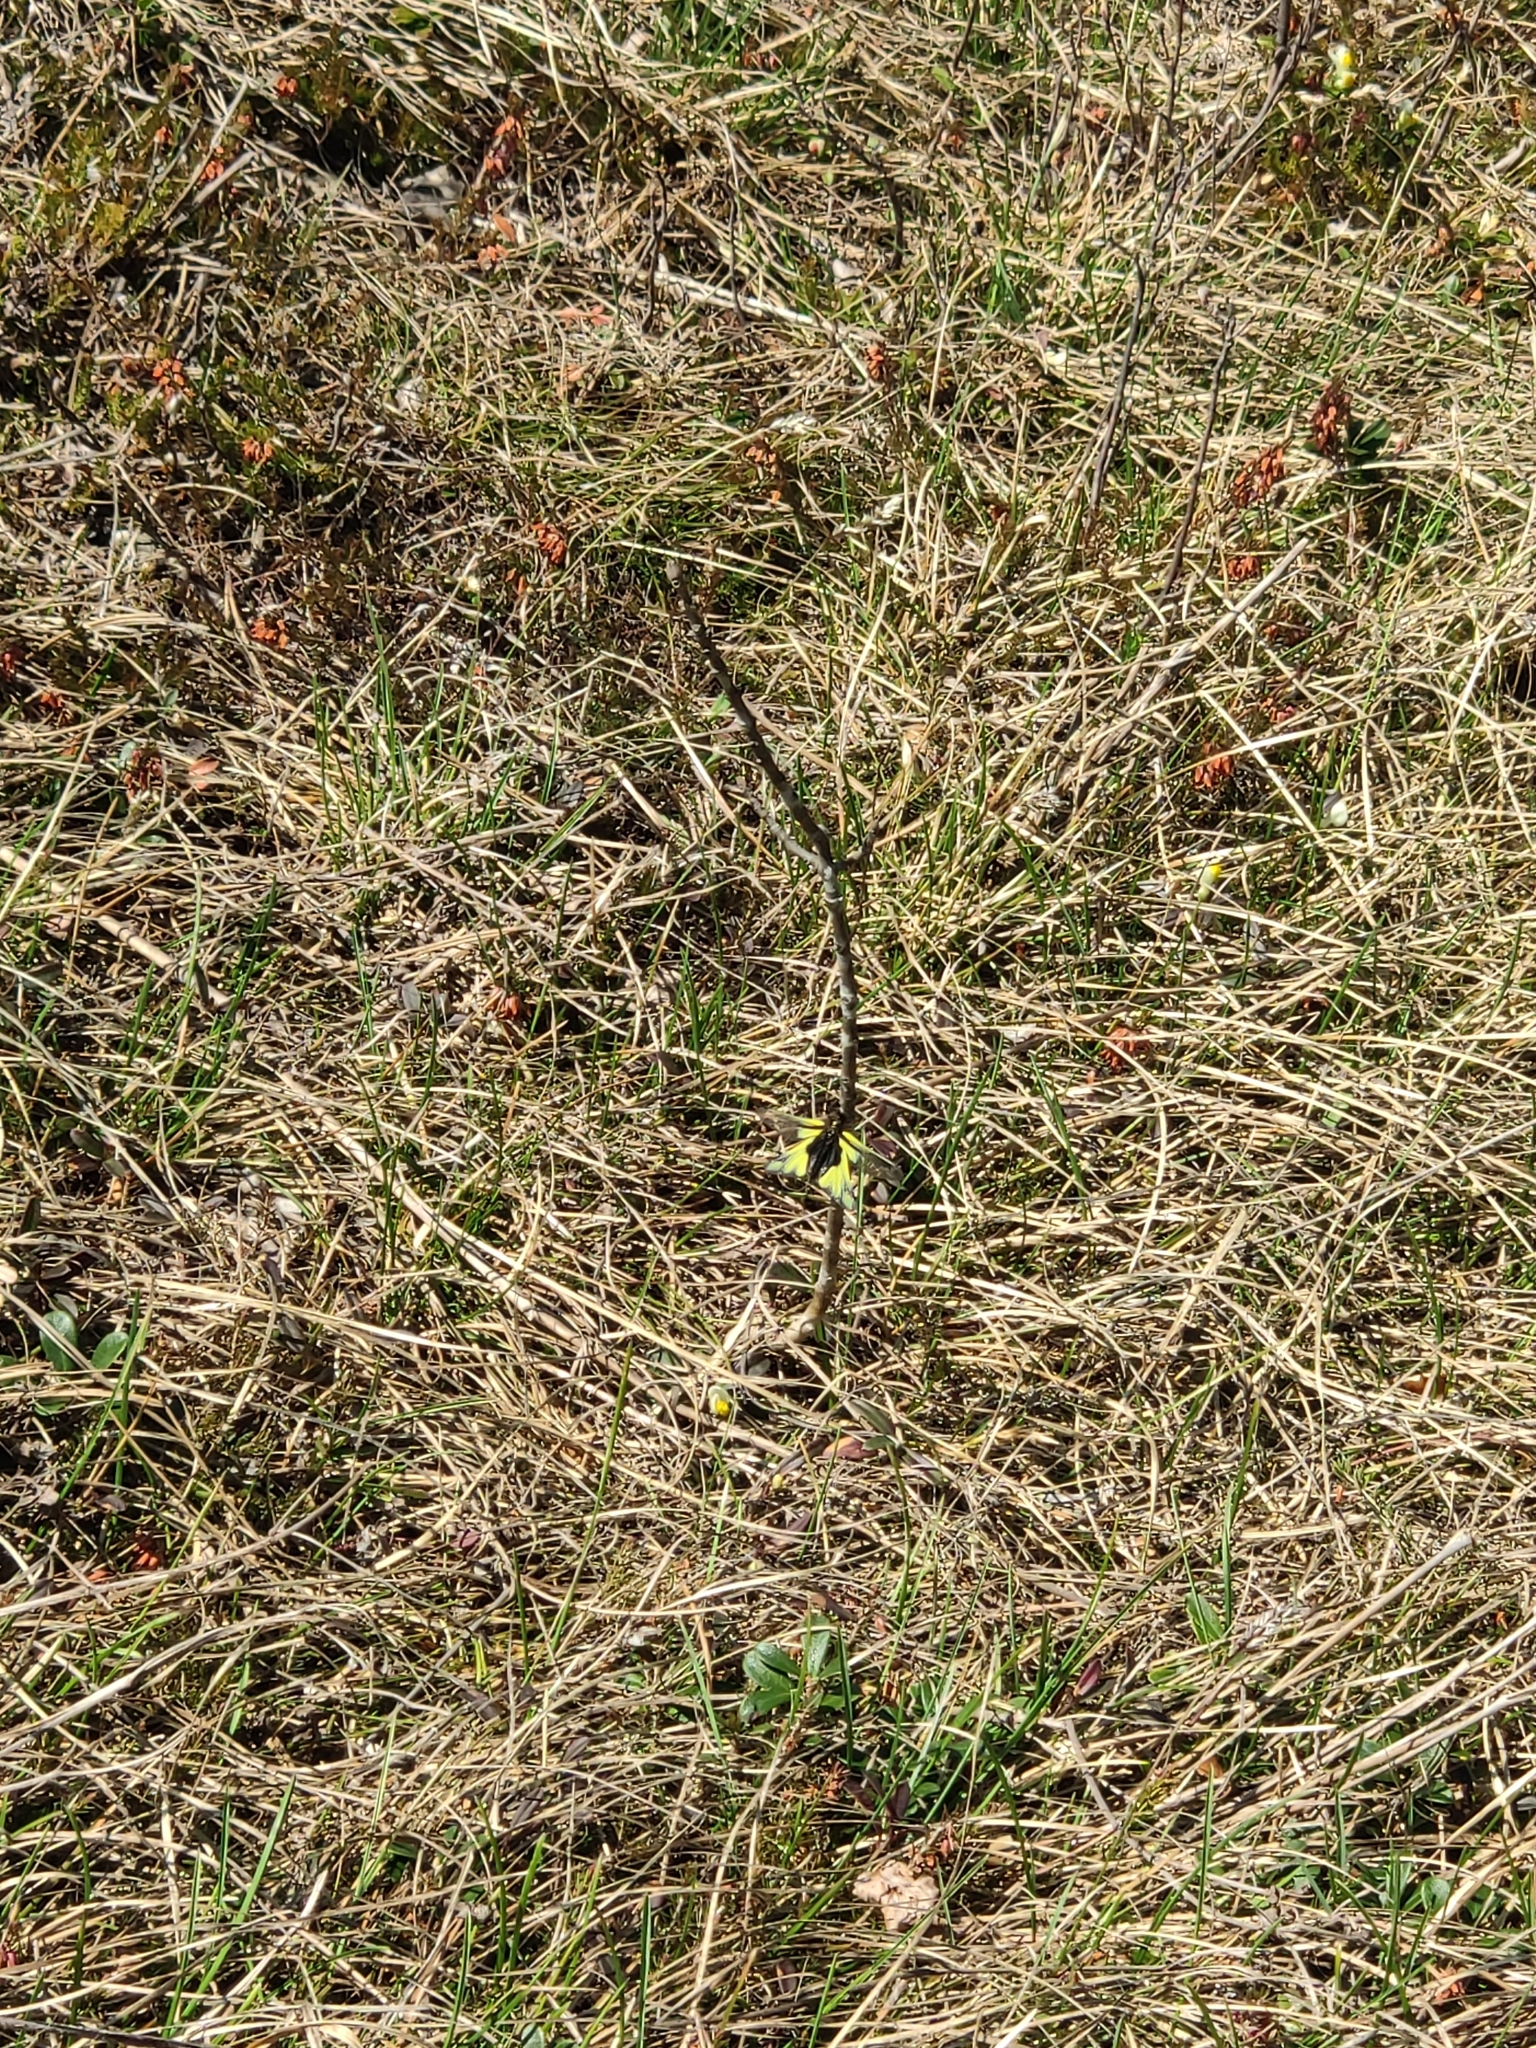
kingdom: Animalia
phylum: Arthropoda
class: Insecta
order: Neuroptera
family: Ascalaphidae
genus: Libelloides
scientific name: Libelloides coccajus
